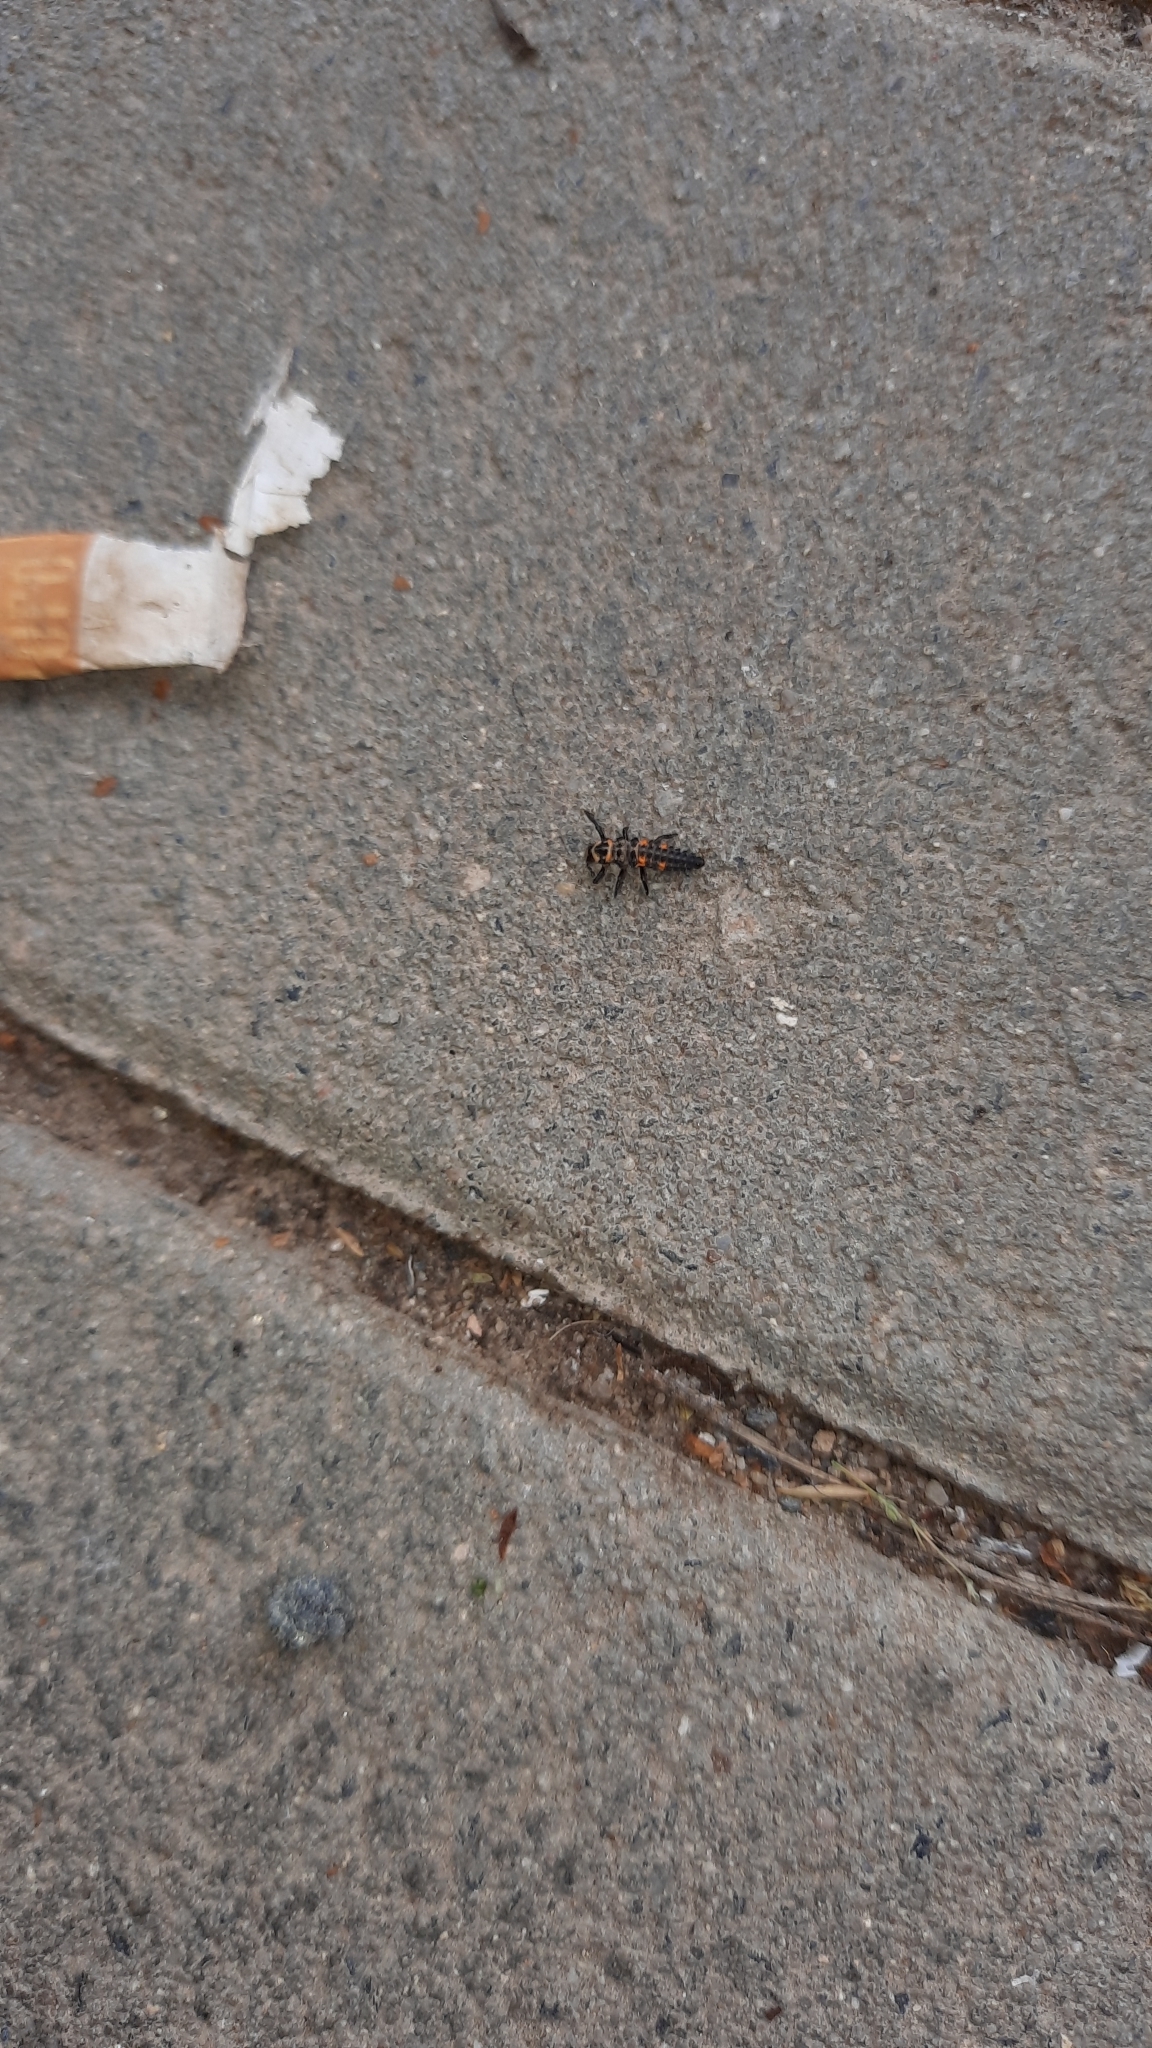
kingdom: Animalia
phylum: Arthropoda
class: Insecta
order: Coleoptera
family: Coccinellidae
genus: Coccinella
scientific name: Coccinella septempunctata
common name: Sevenspotted lady beetle
